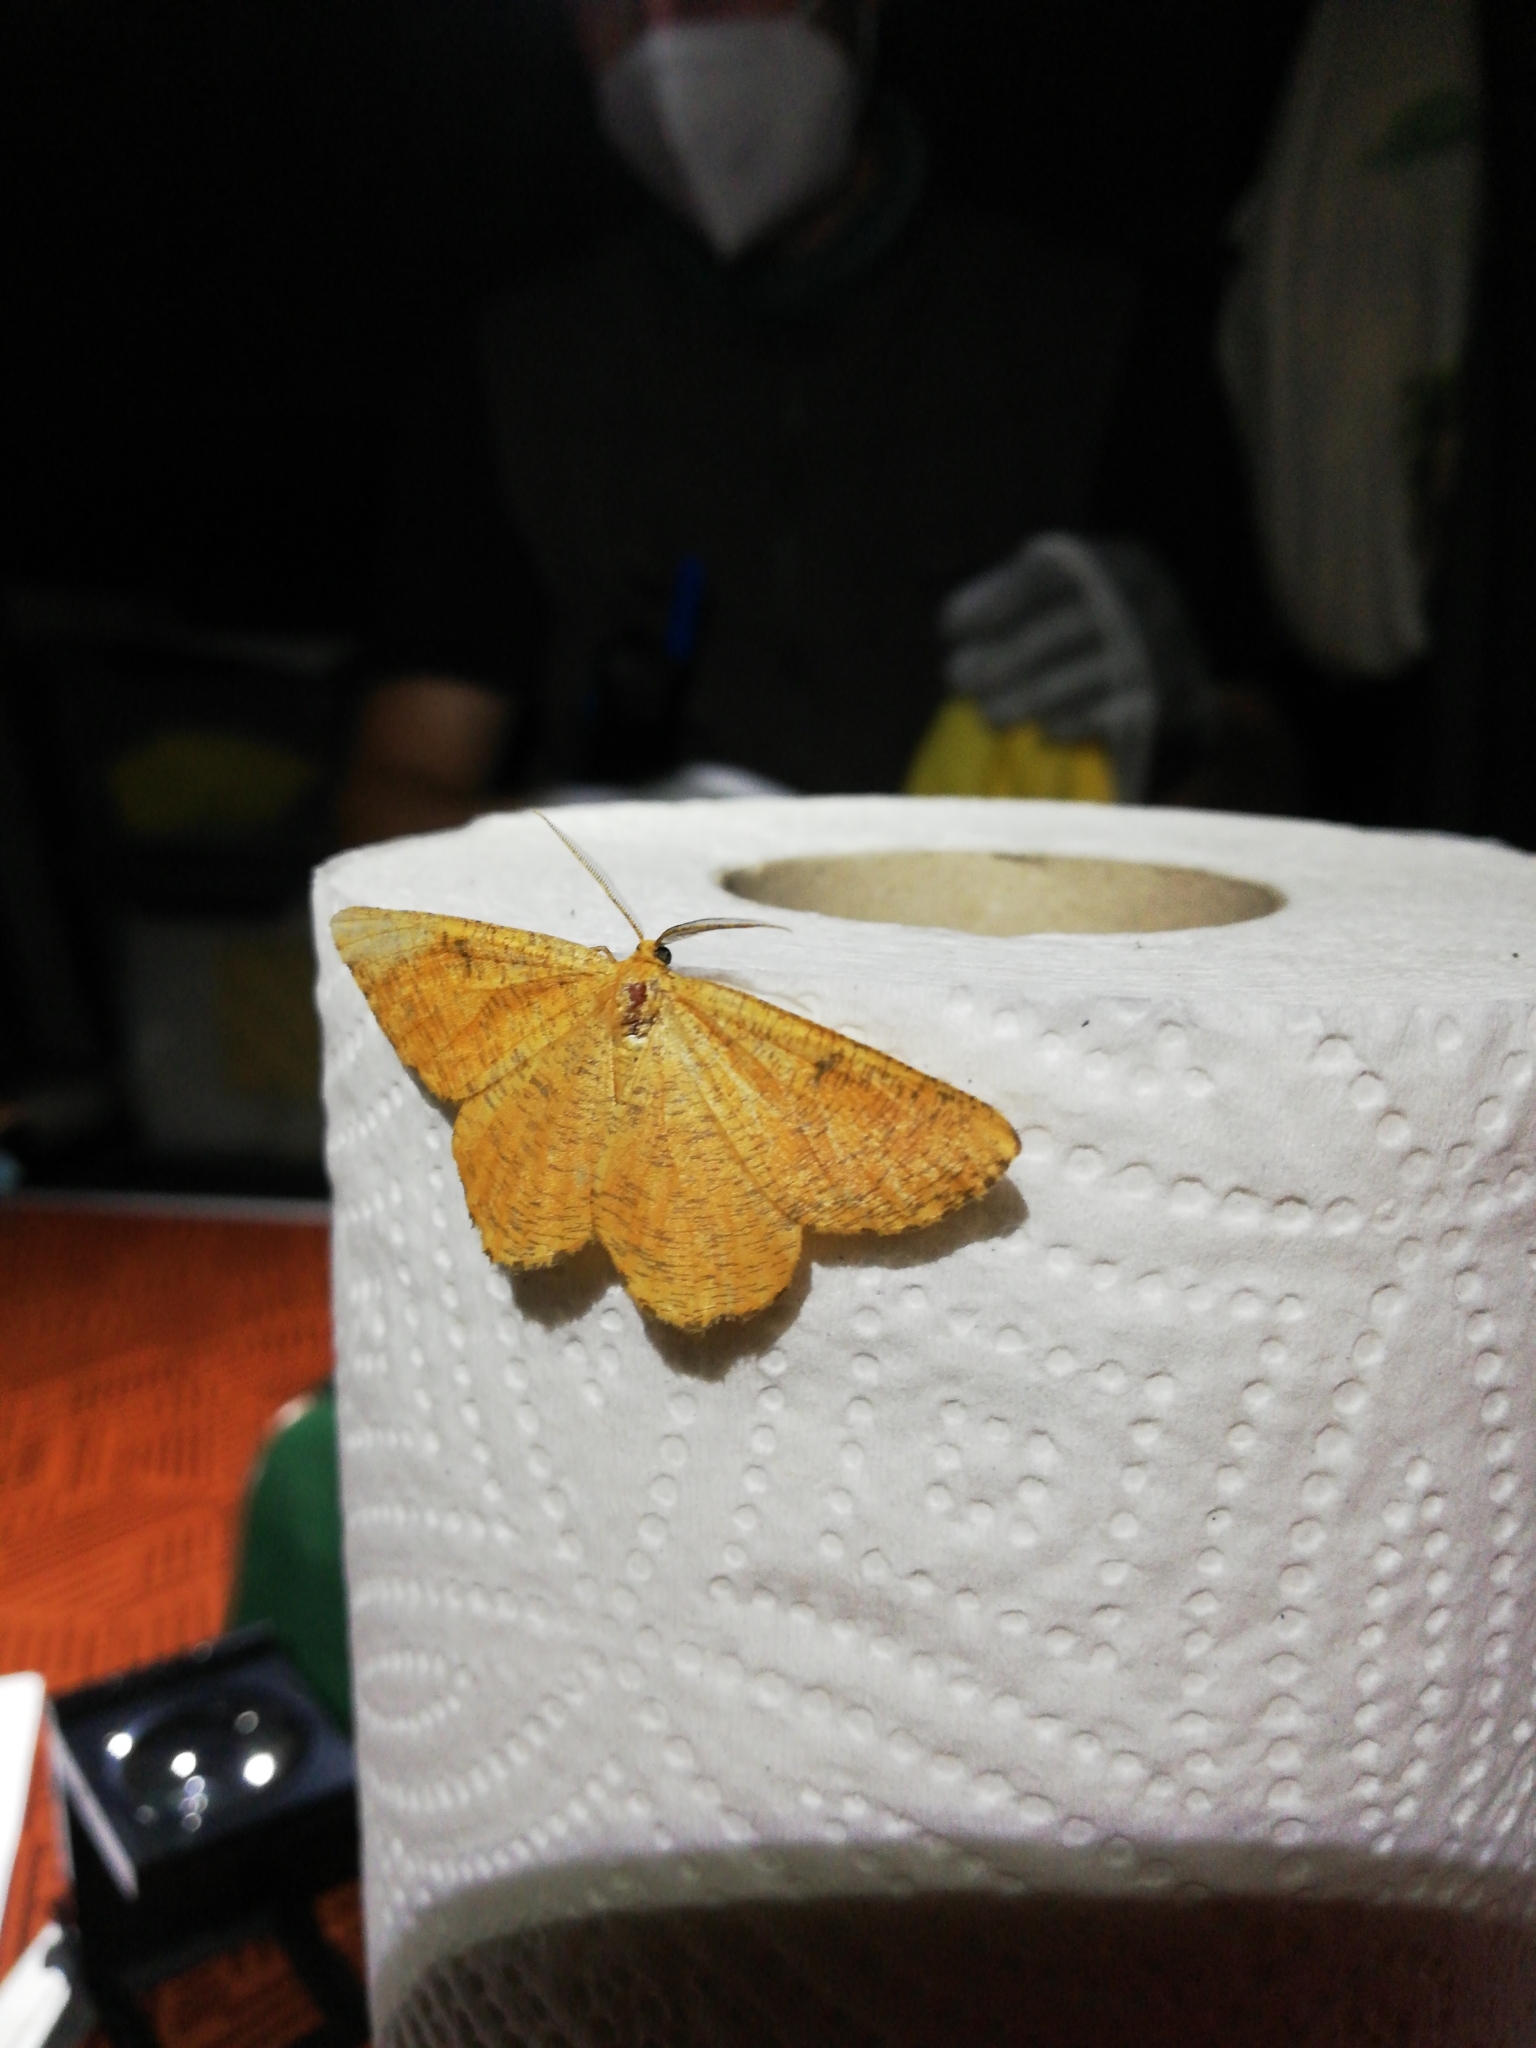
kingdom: Animalia
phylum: Arthropoda
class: Insecta
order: Lepidoptera
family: Geometridae
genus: Angerona
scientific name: Angerona prunaria
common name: Orange moth
